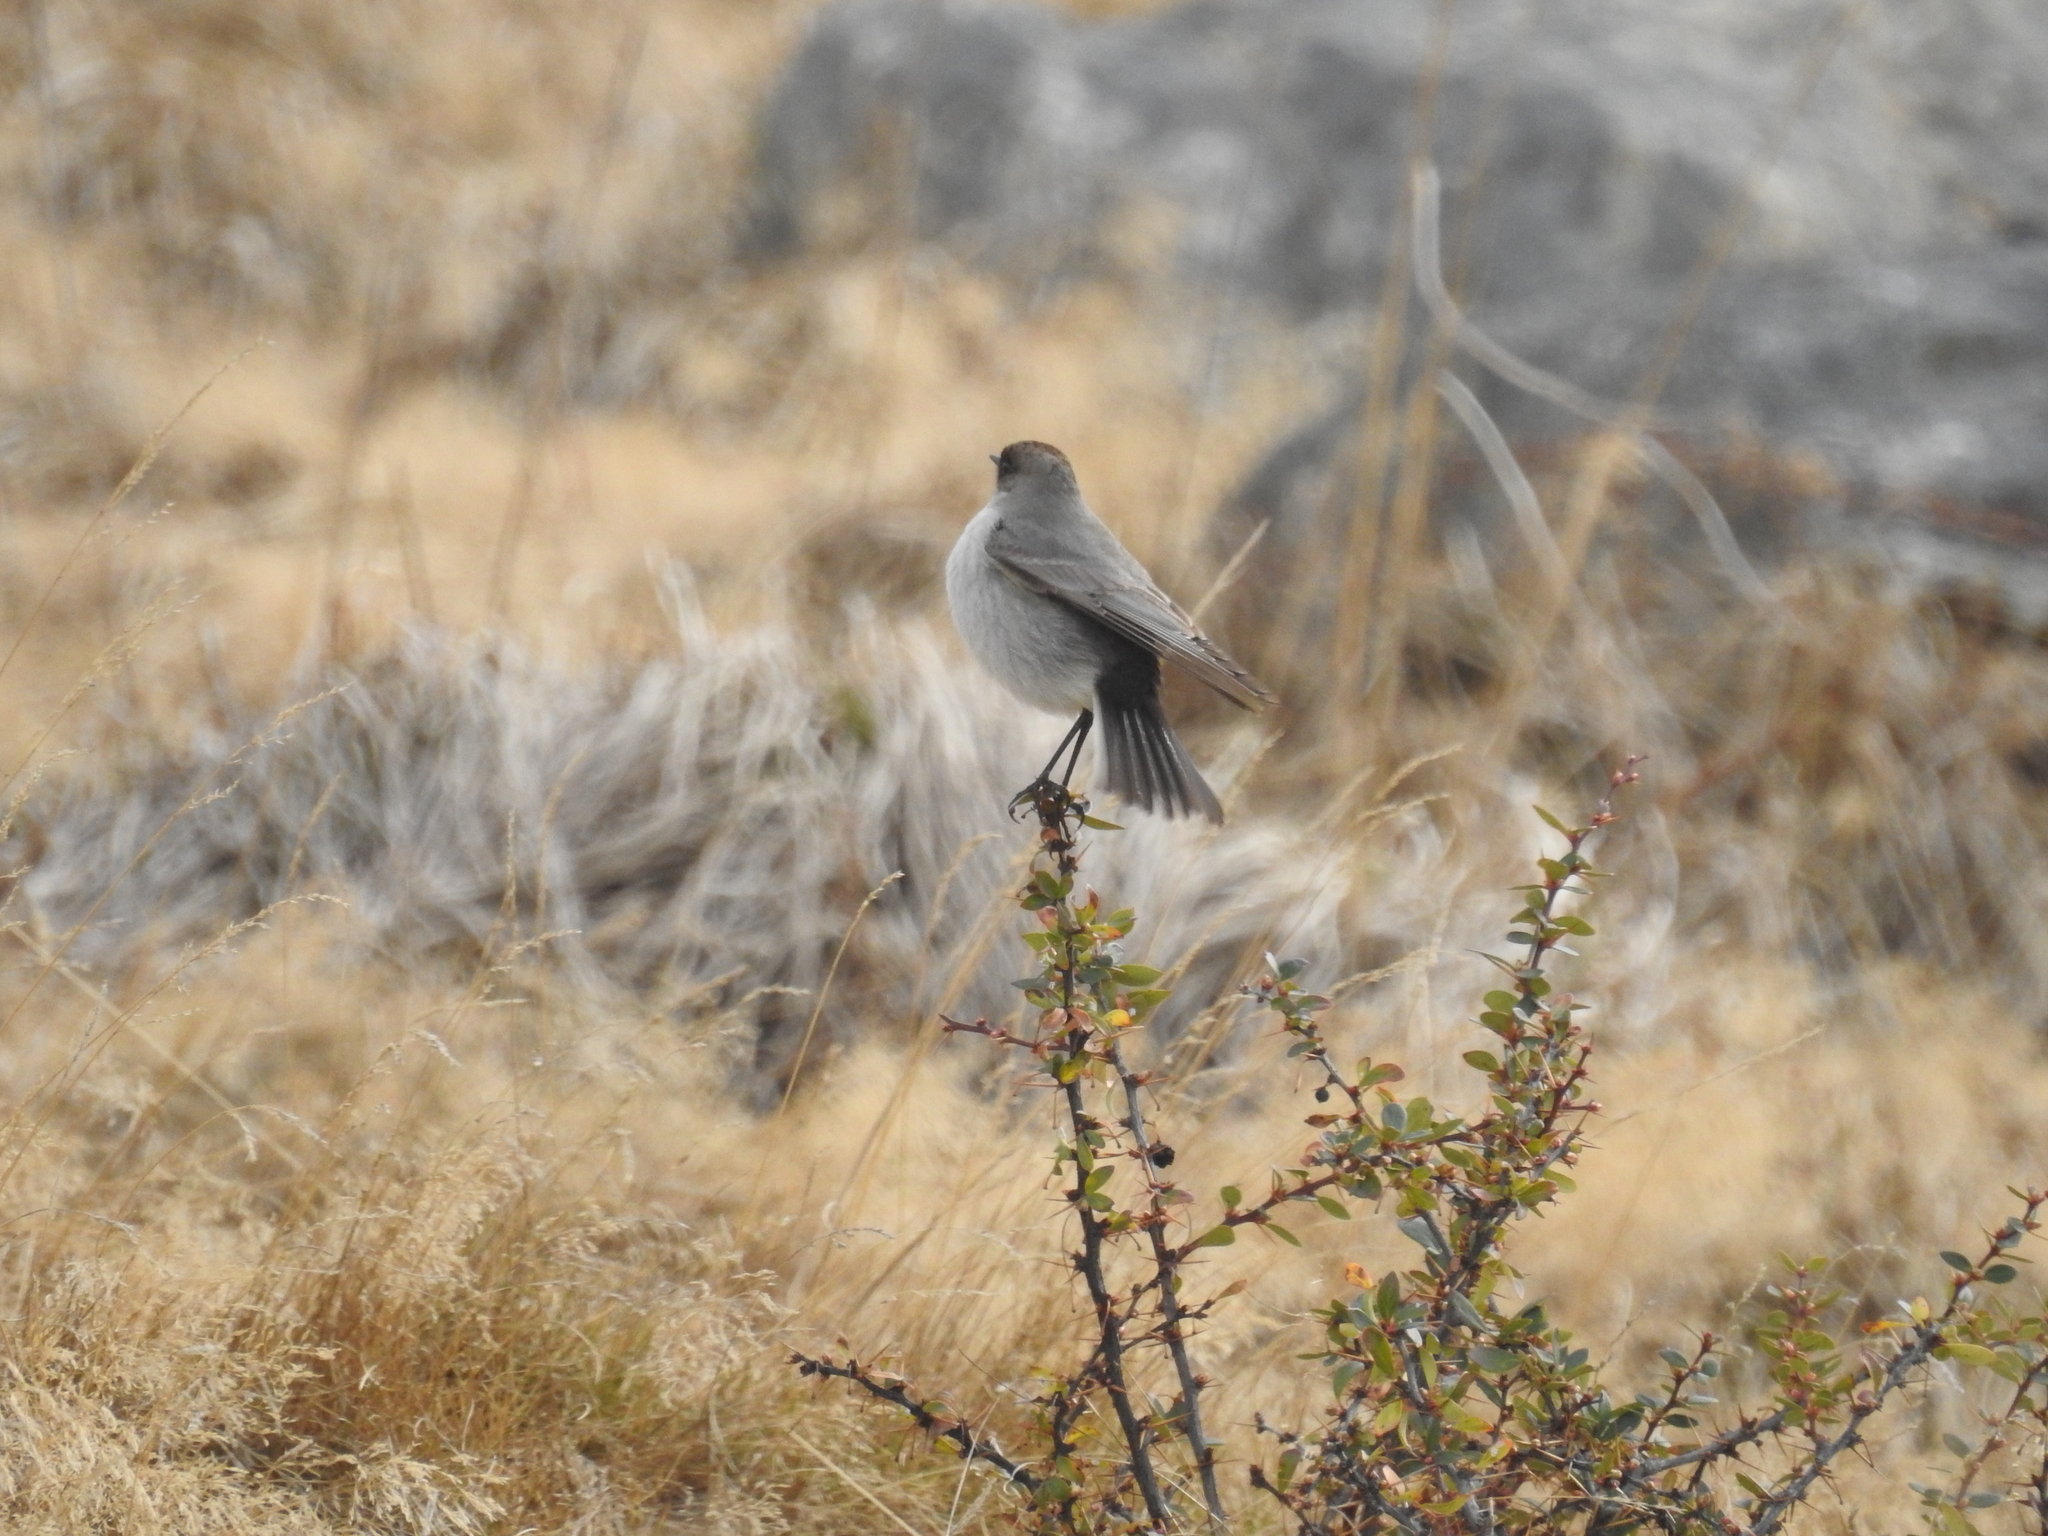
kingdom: Animalia
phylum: Chordata
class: Aves
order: Passeriformes
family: Tyrannidae
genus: Muscisaxicola
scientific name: Muscisaxicola maclovianus
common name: Dark-faced ground tyrant
